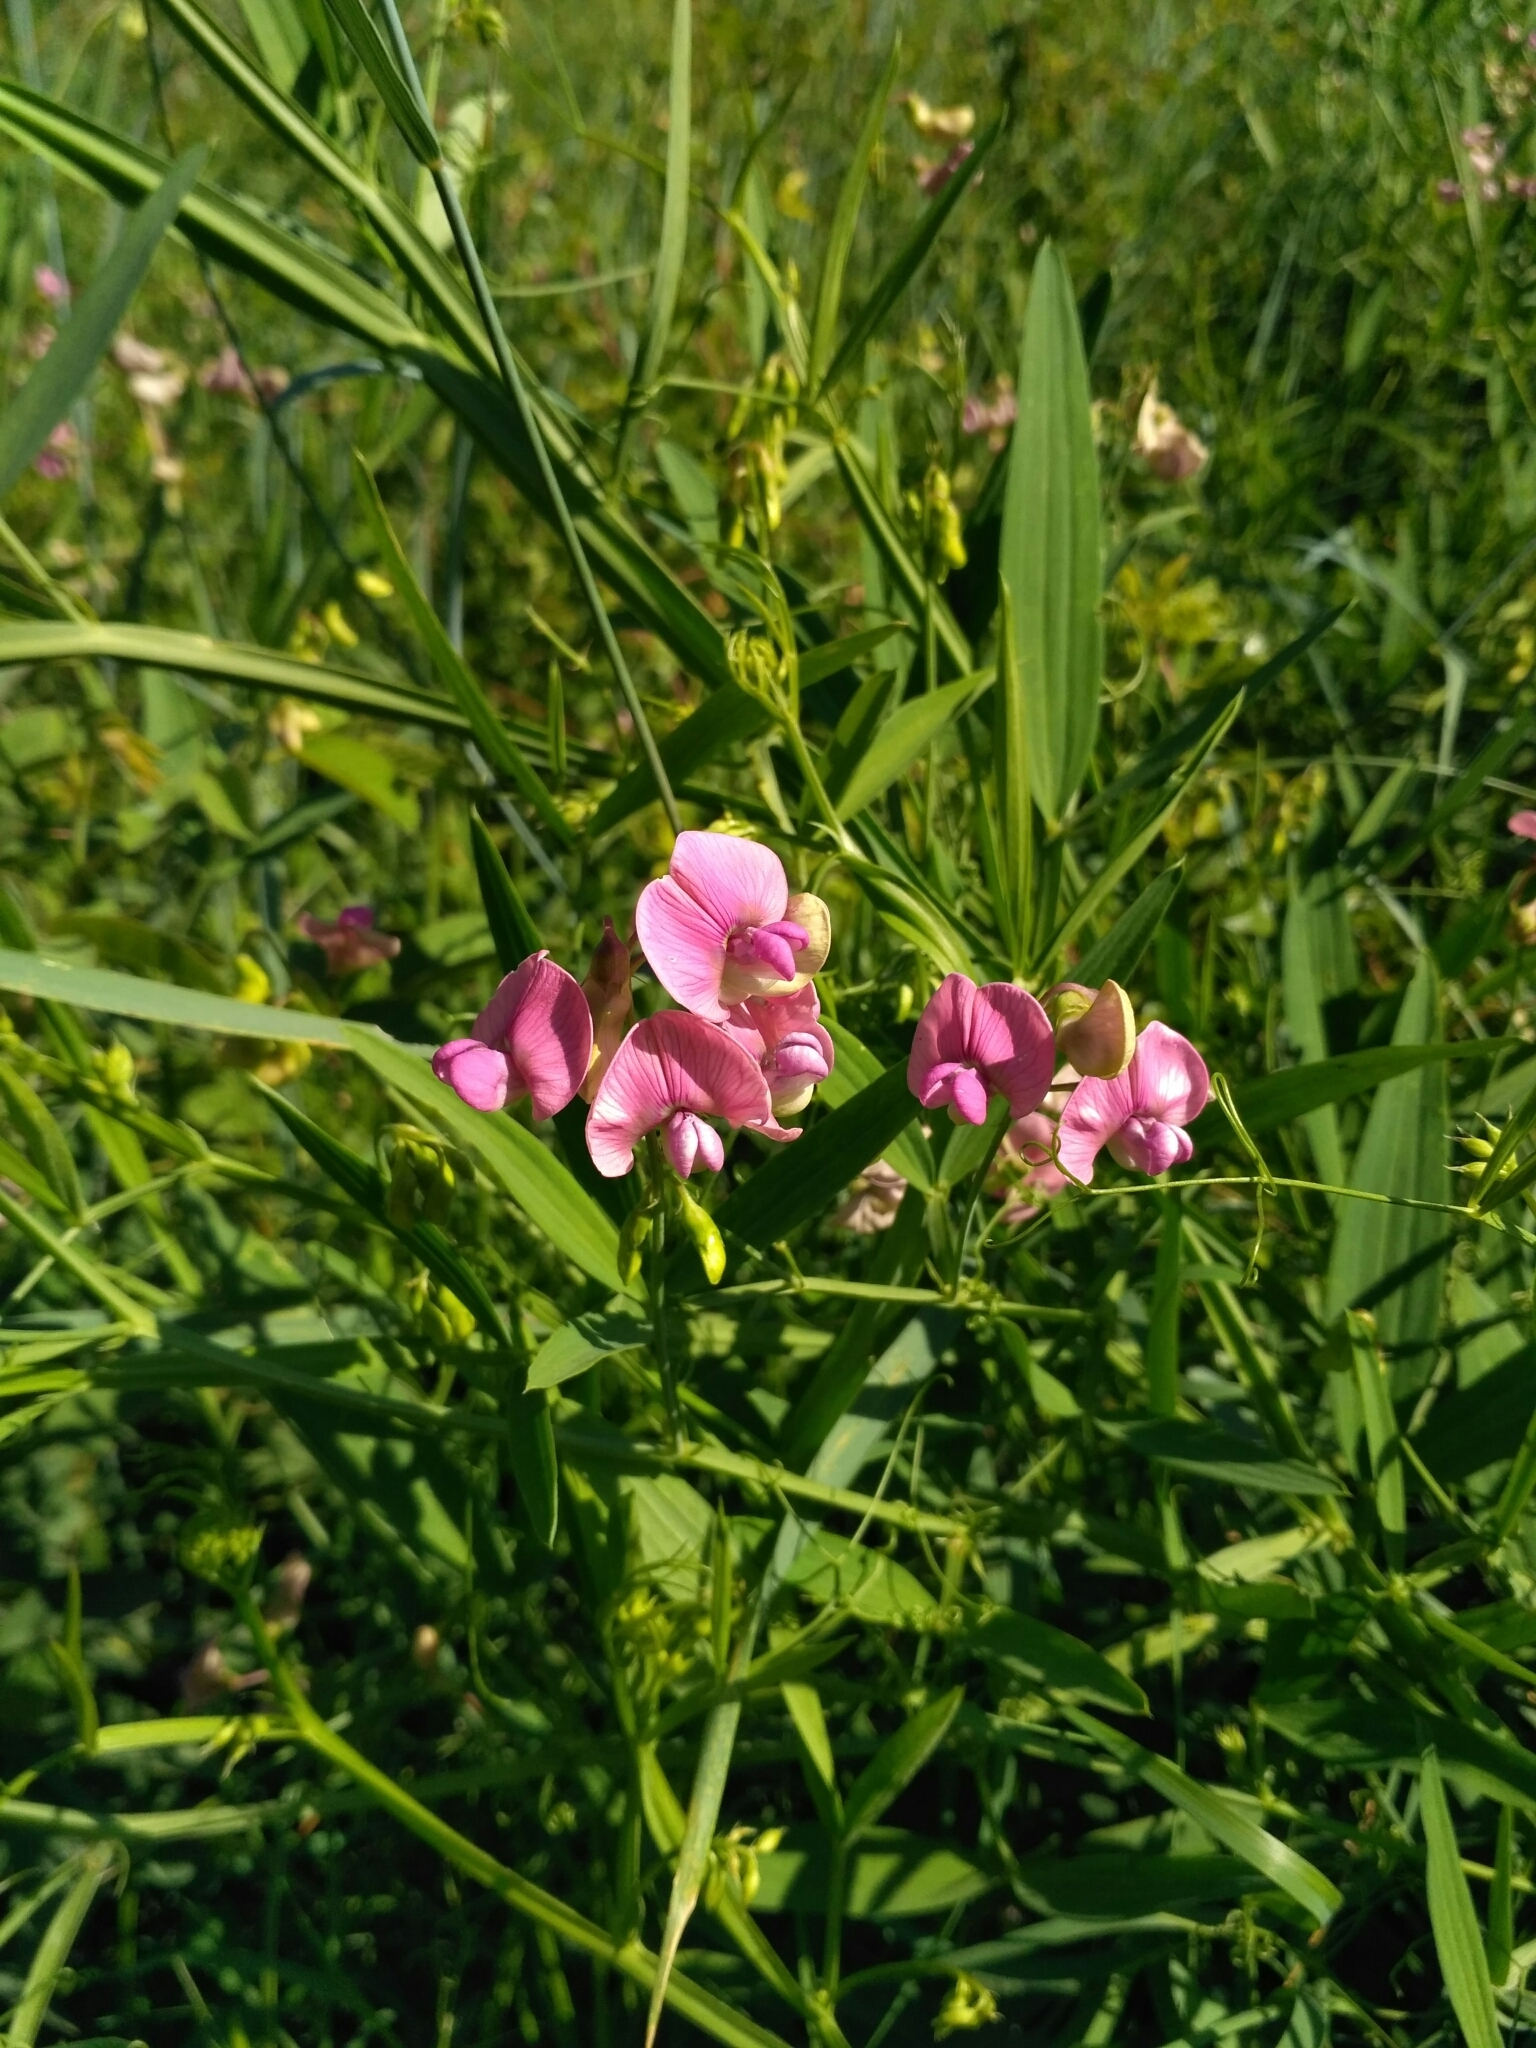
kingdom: Plantae
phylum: Tracheophyta
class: Magnoliopsida
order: Fabales
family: Fabaceae
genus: Lathyrus
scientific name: Lathyrus sylvestris
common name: Flat pea
